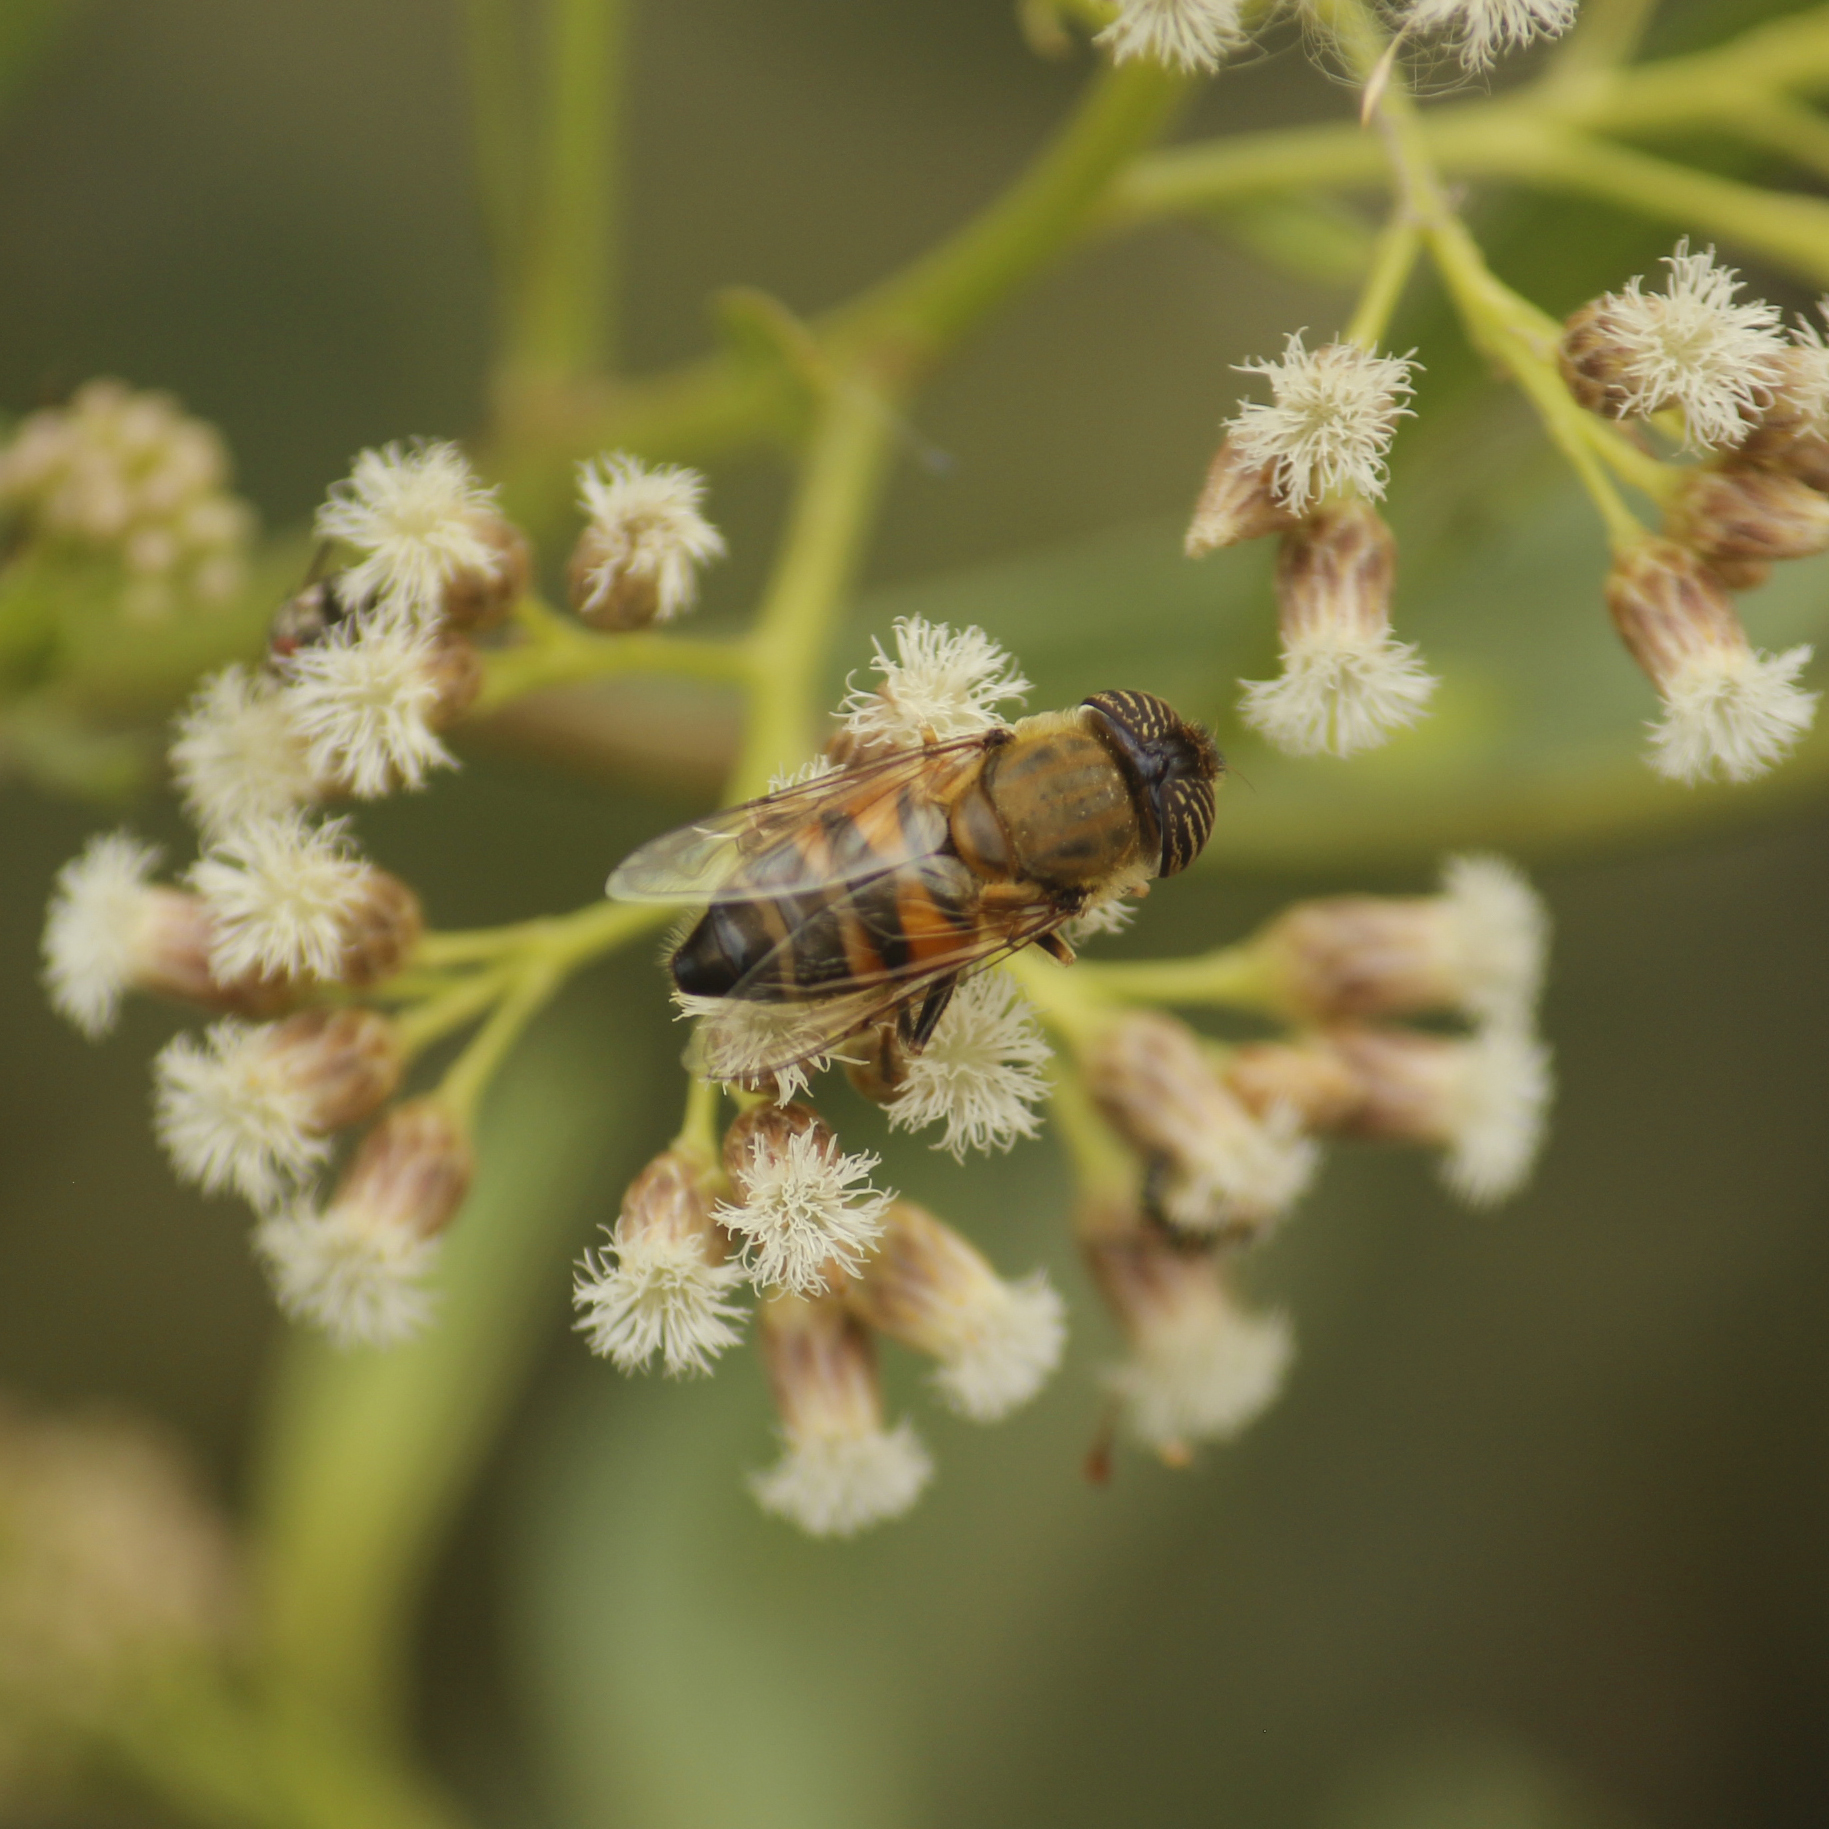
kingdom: Animalia
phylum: Arthropoda
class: Insecta
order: Diptera
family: Syrphidae
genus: Eristalinus
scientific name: Eristalinus taeniops
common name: Syrphid fly
